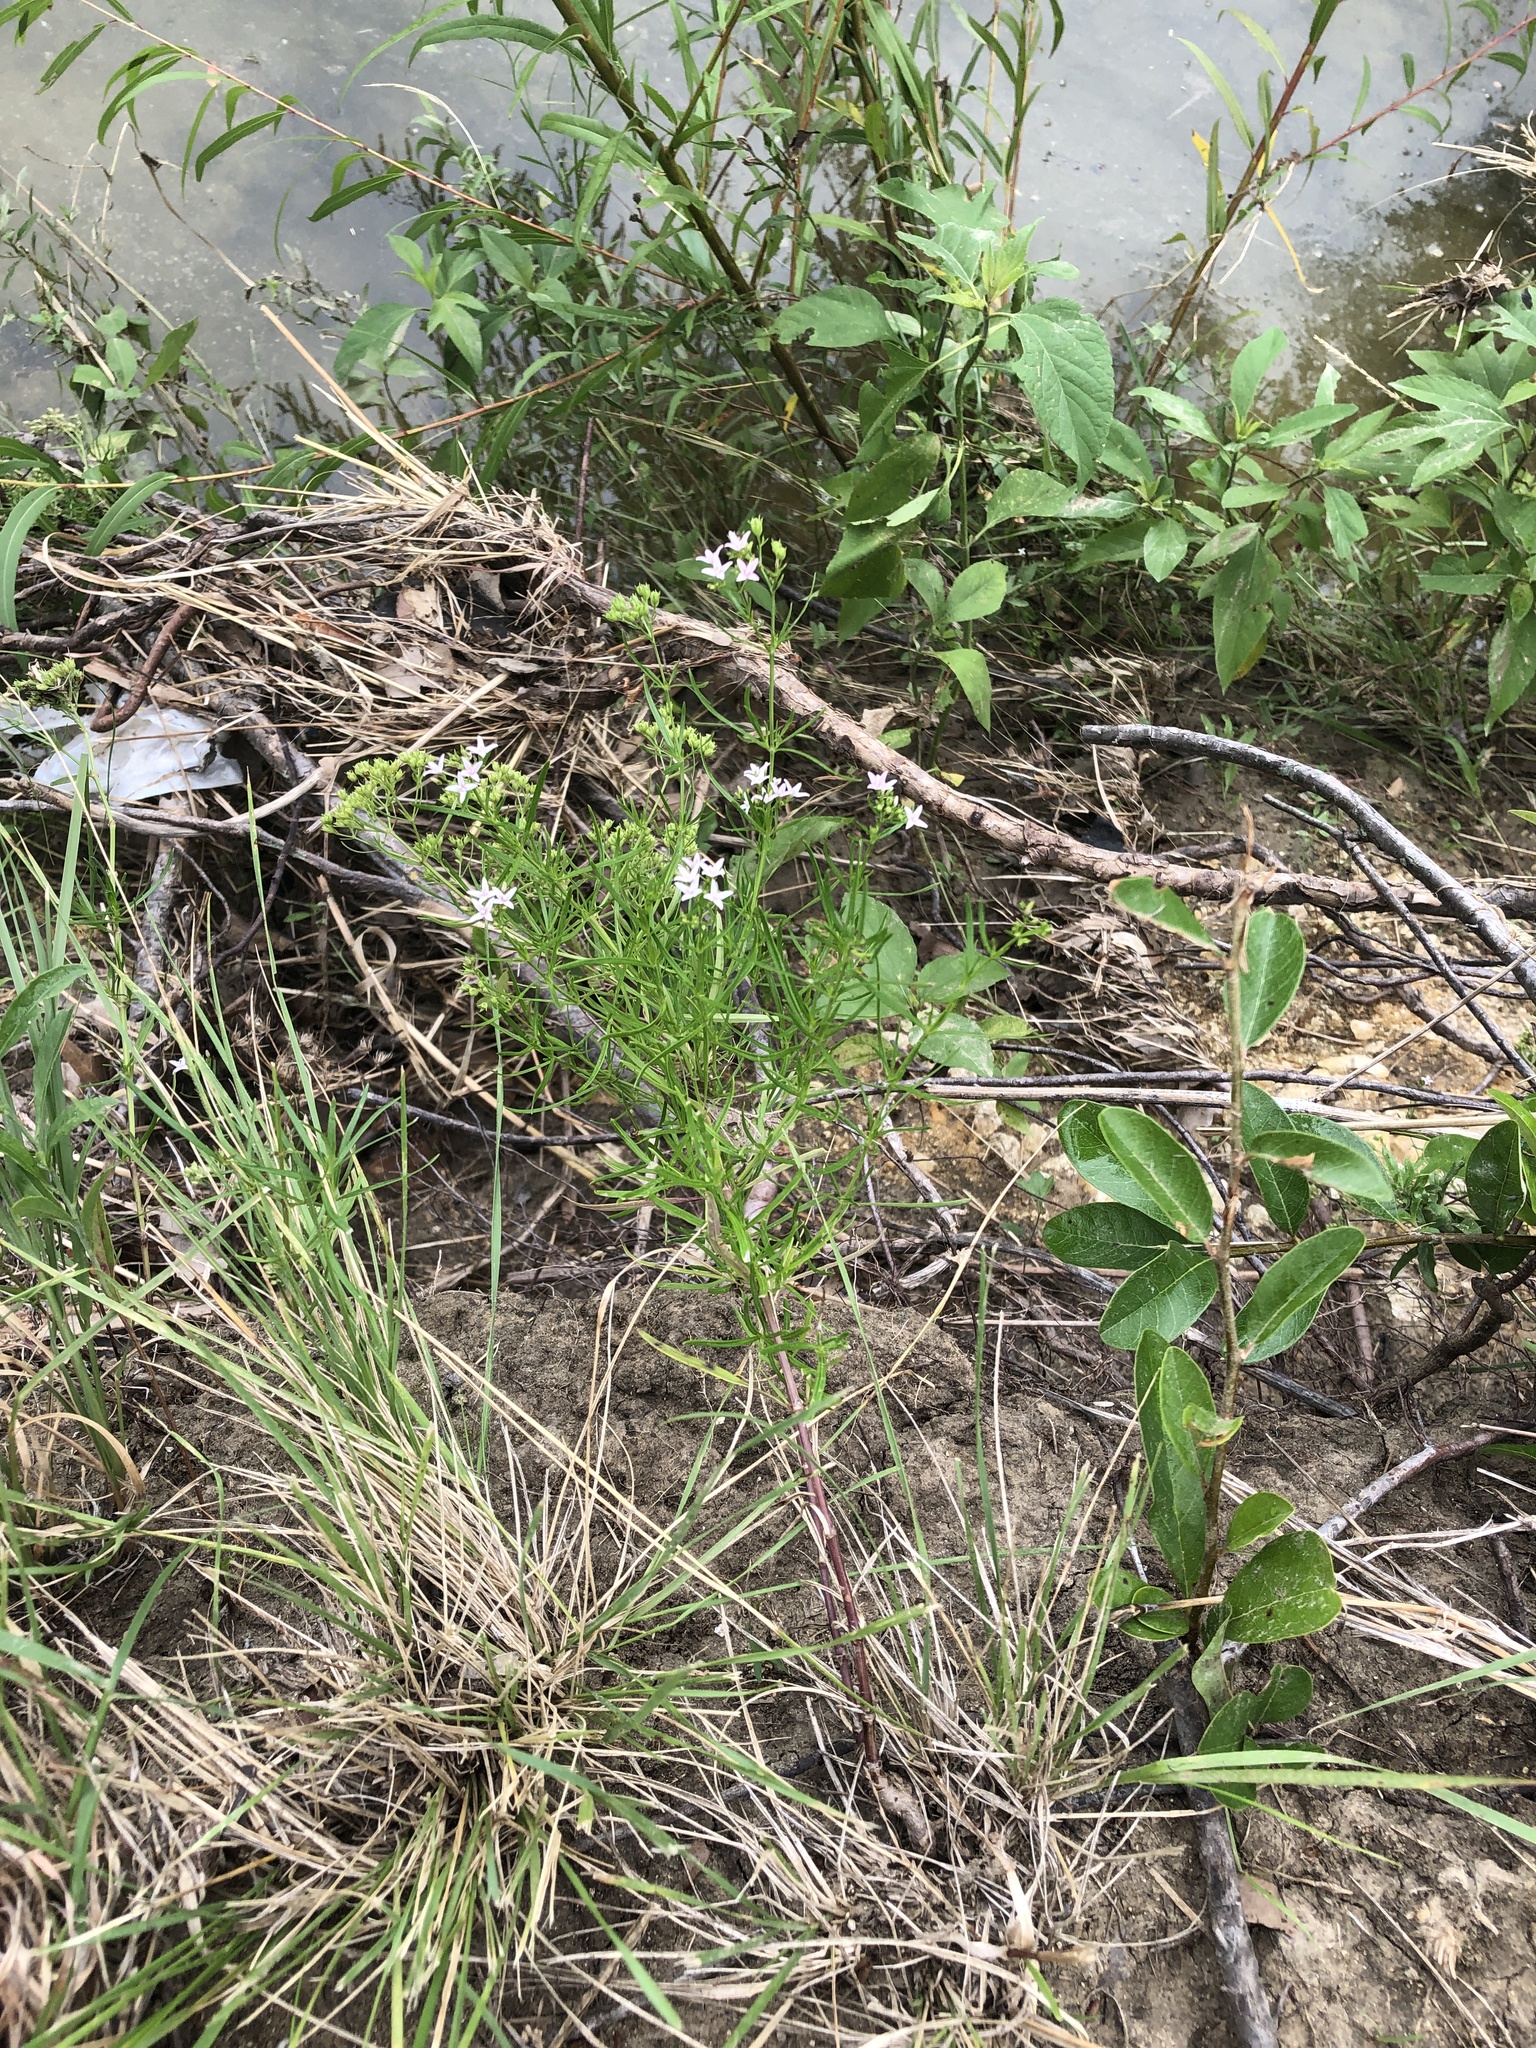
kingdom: Plantae
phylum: Tracheophyta
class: Magnoliopsida
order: Gentianales
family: Rubiaceae
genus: Stenaria
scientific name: Stenaria nigricans
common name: Diamondflowers
